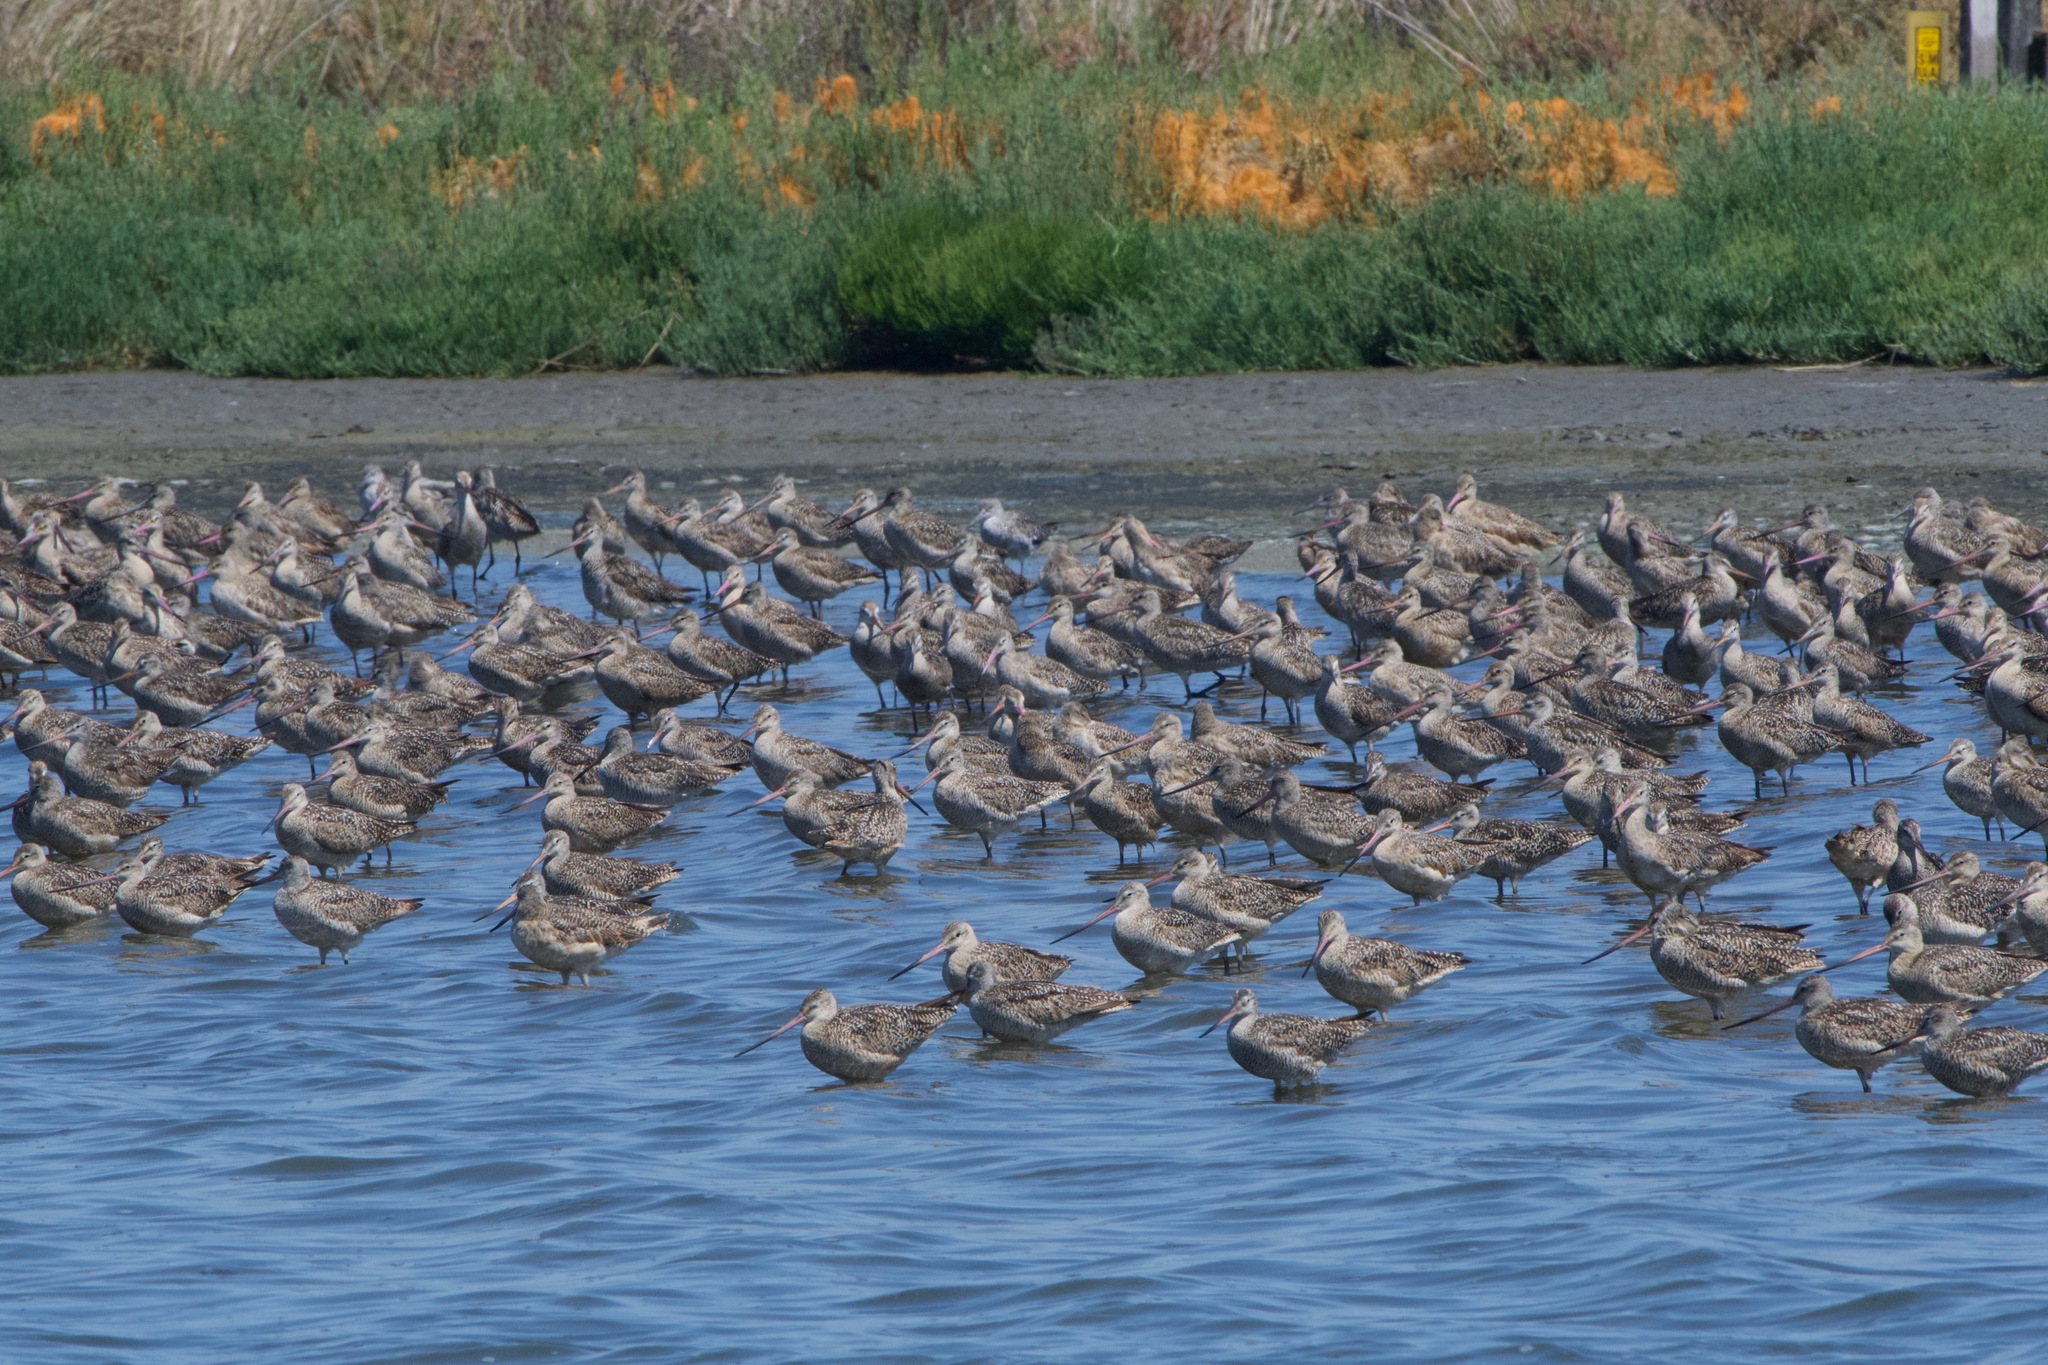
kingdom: Animalia
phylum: Chordata
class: Aves
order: Charadriiformes
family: Scolopacidae
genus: Limosa
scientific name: Limosa fedoa
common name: Marbled godwit
